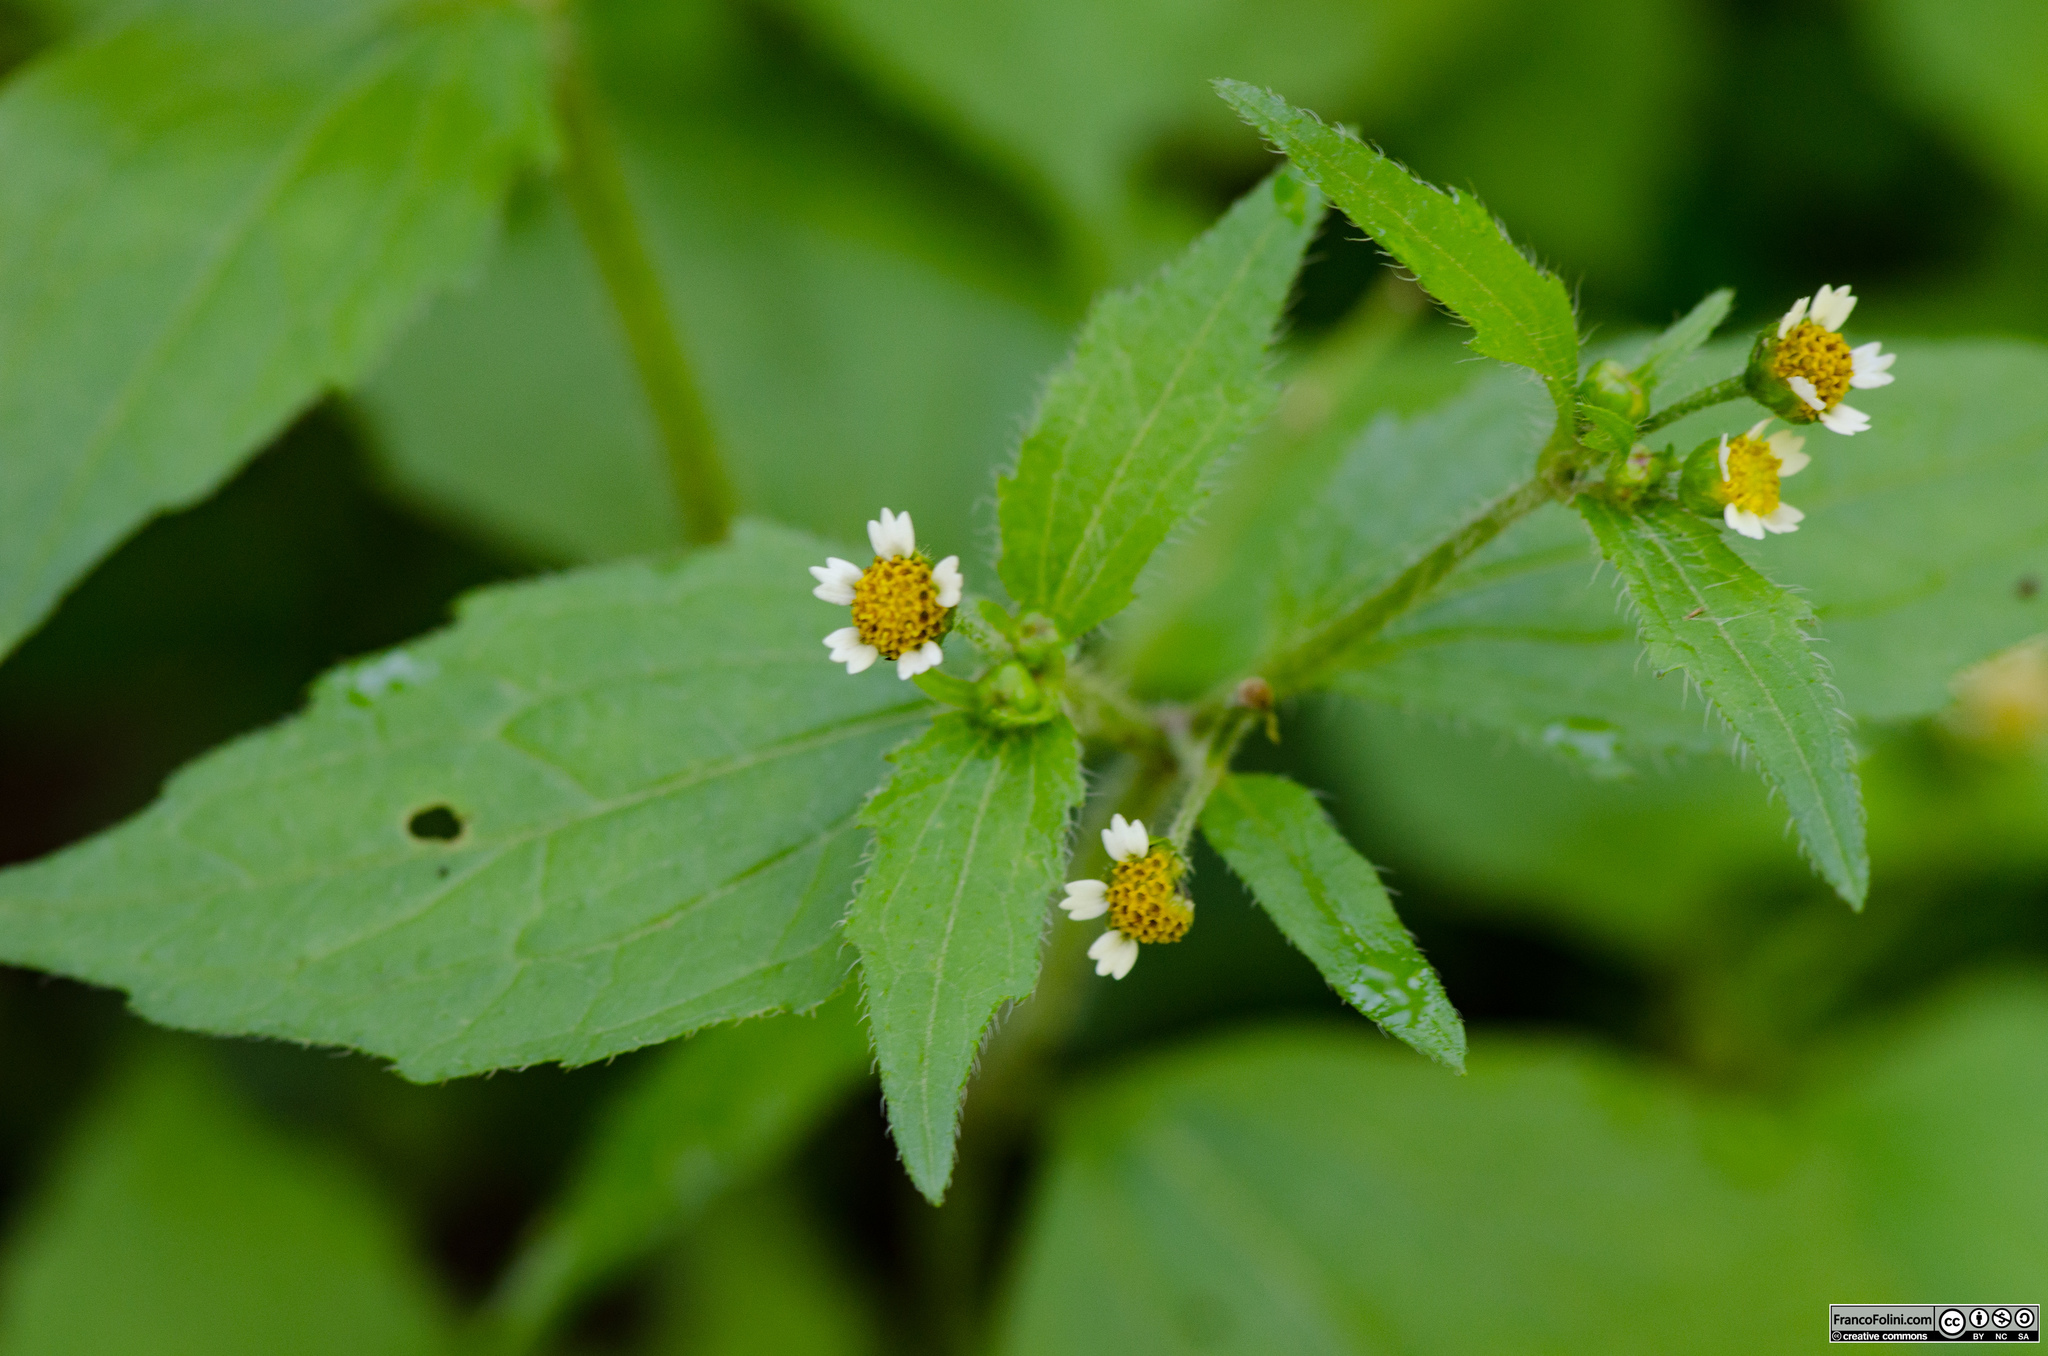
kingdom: Plantae
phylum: Tracheophyta
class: Magnoliopsida
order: Asterales
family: Asteraceae
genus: Galinsoga
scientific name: Galinsoga quadriradiata
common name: Shaggy soldier
